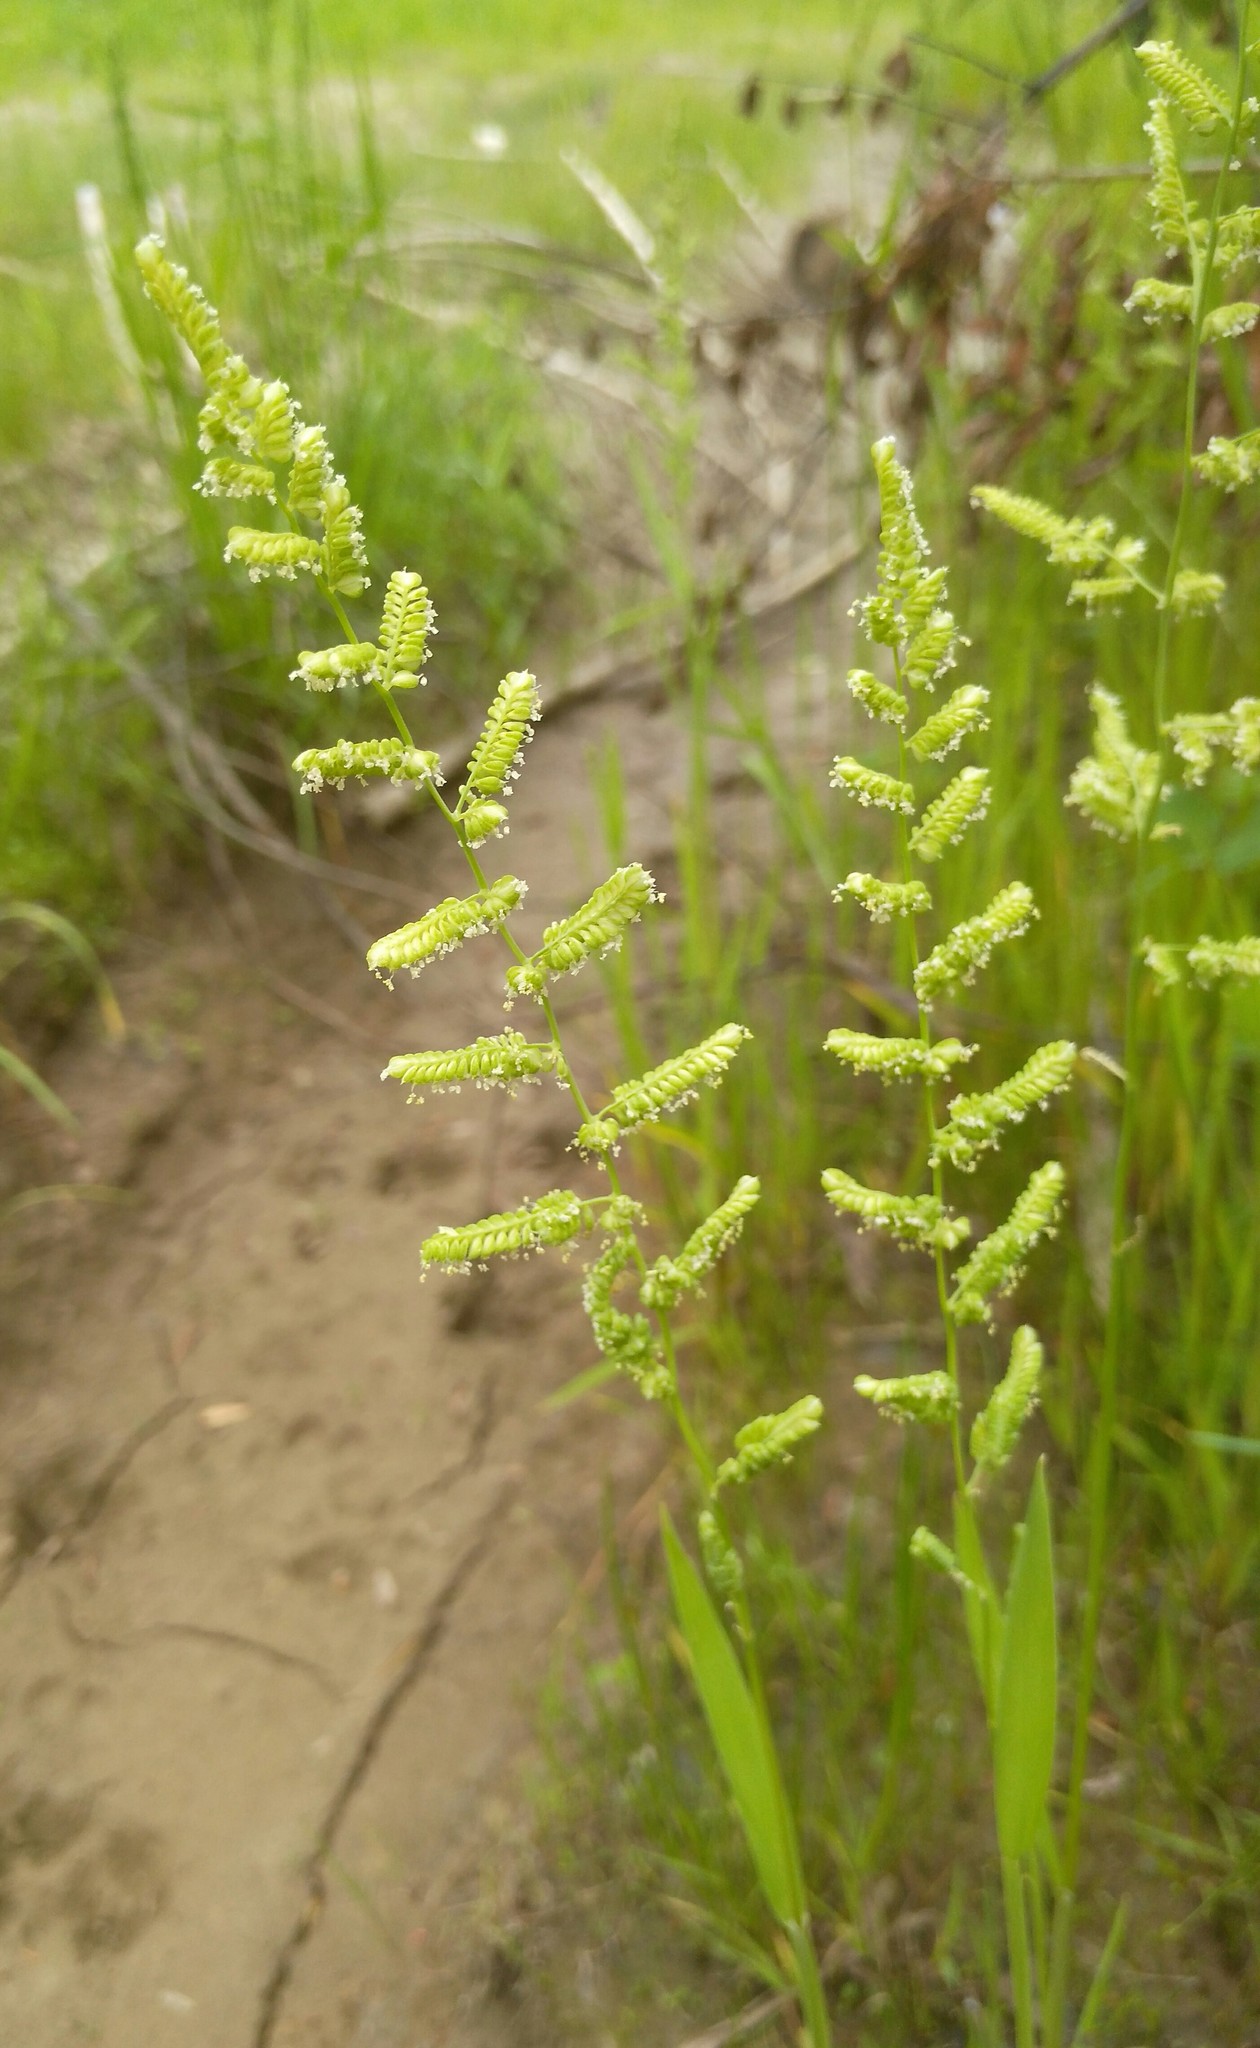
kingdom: Plantae
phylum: Tracheophyta
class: Liliopsida
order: Poales
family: Poaceae
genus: Beckmannia
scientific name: Beckmannia syzigachne
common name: American slough-grass
